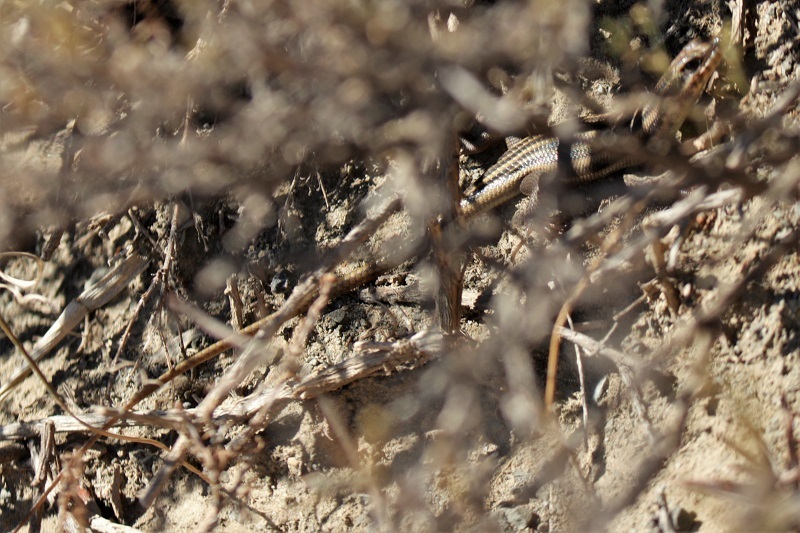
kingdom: Animalia
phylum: Chordata
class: Squamata
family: Scincidae
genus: Trachylepis
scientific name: Trachylepis sulcata
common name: Western rock skink
